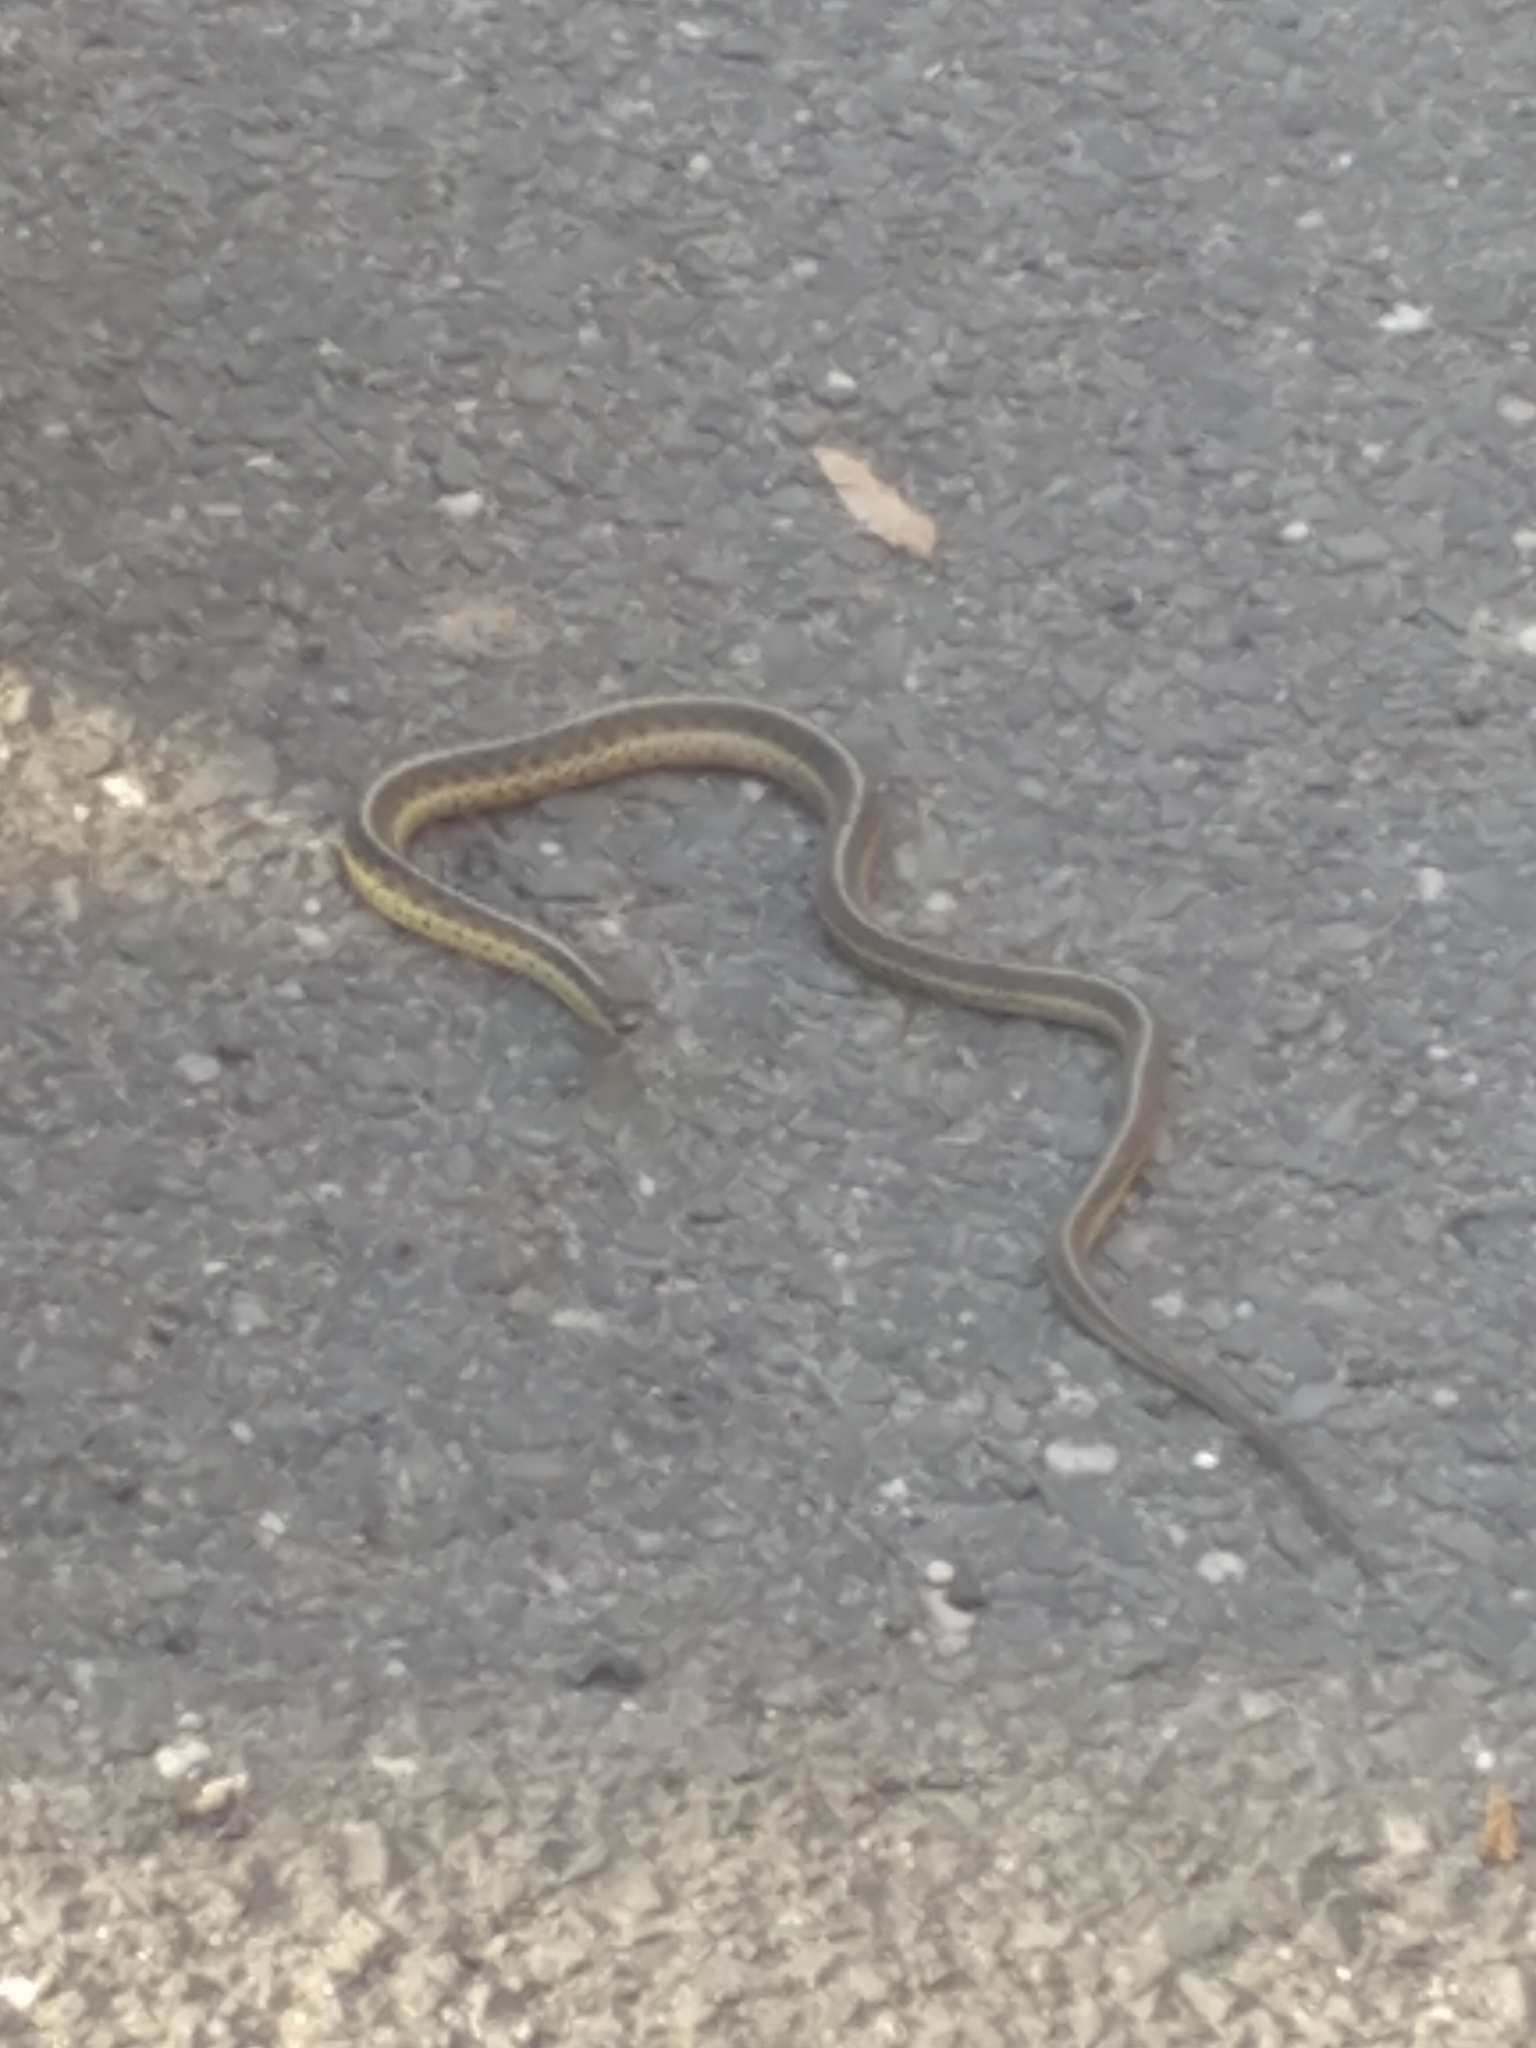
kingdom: Animalia
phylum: Chordata
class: Squamata
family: Colubridae
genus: Thamnophis
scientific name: Thamnophis sirtalis
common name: Common garter snake
